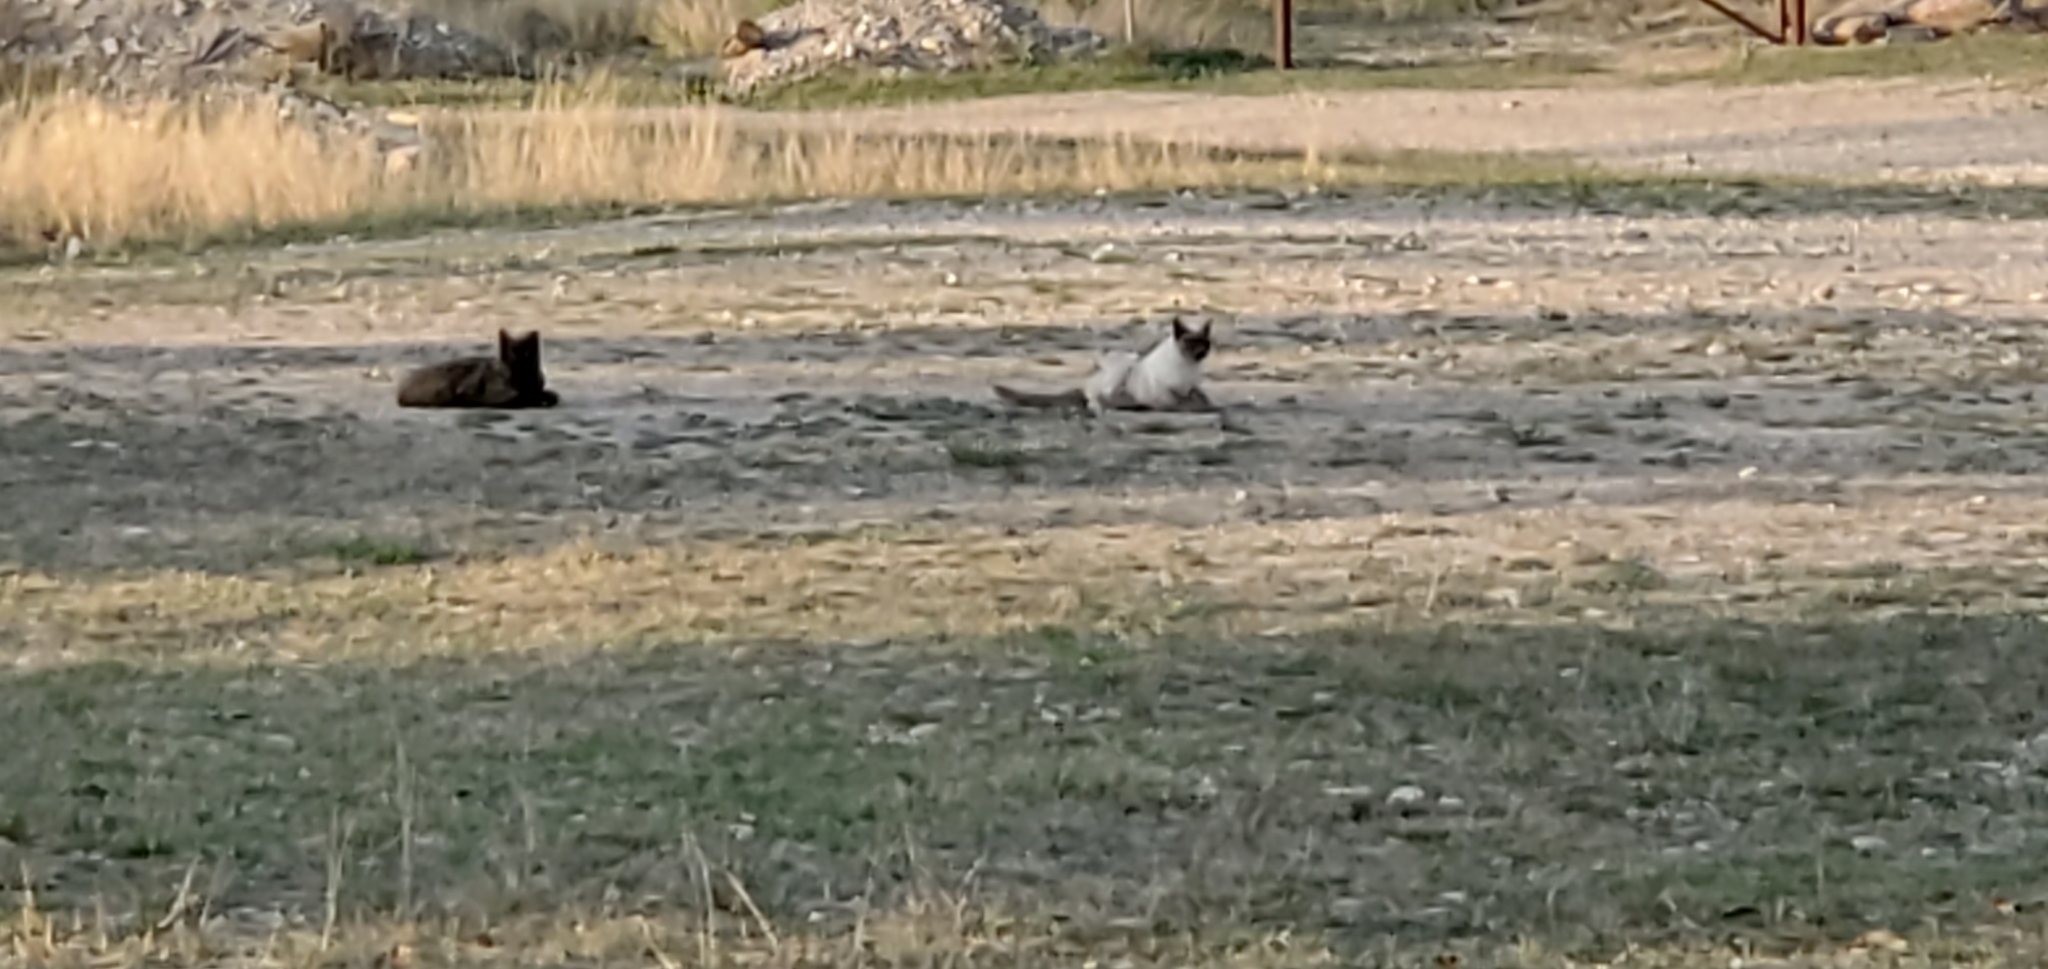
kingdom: Animalia
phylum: Chordata
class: Mammalia
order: Carnivora
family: Felidae
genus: Felis
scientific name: Felis catus
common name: Domestic cat
